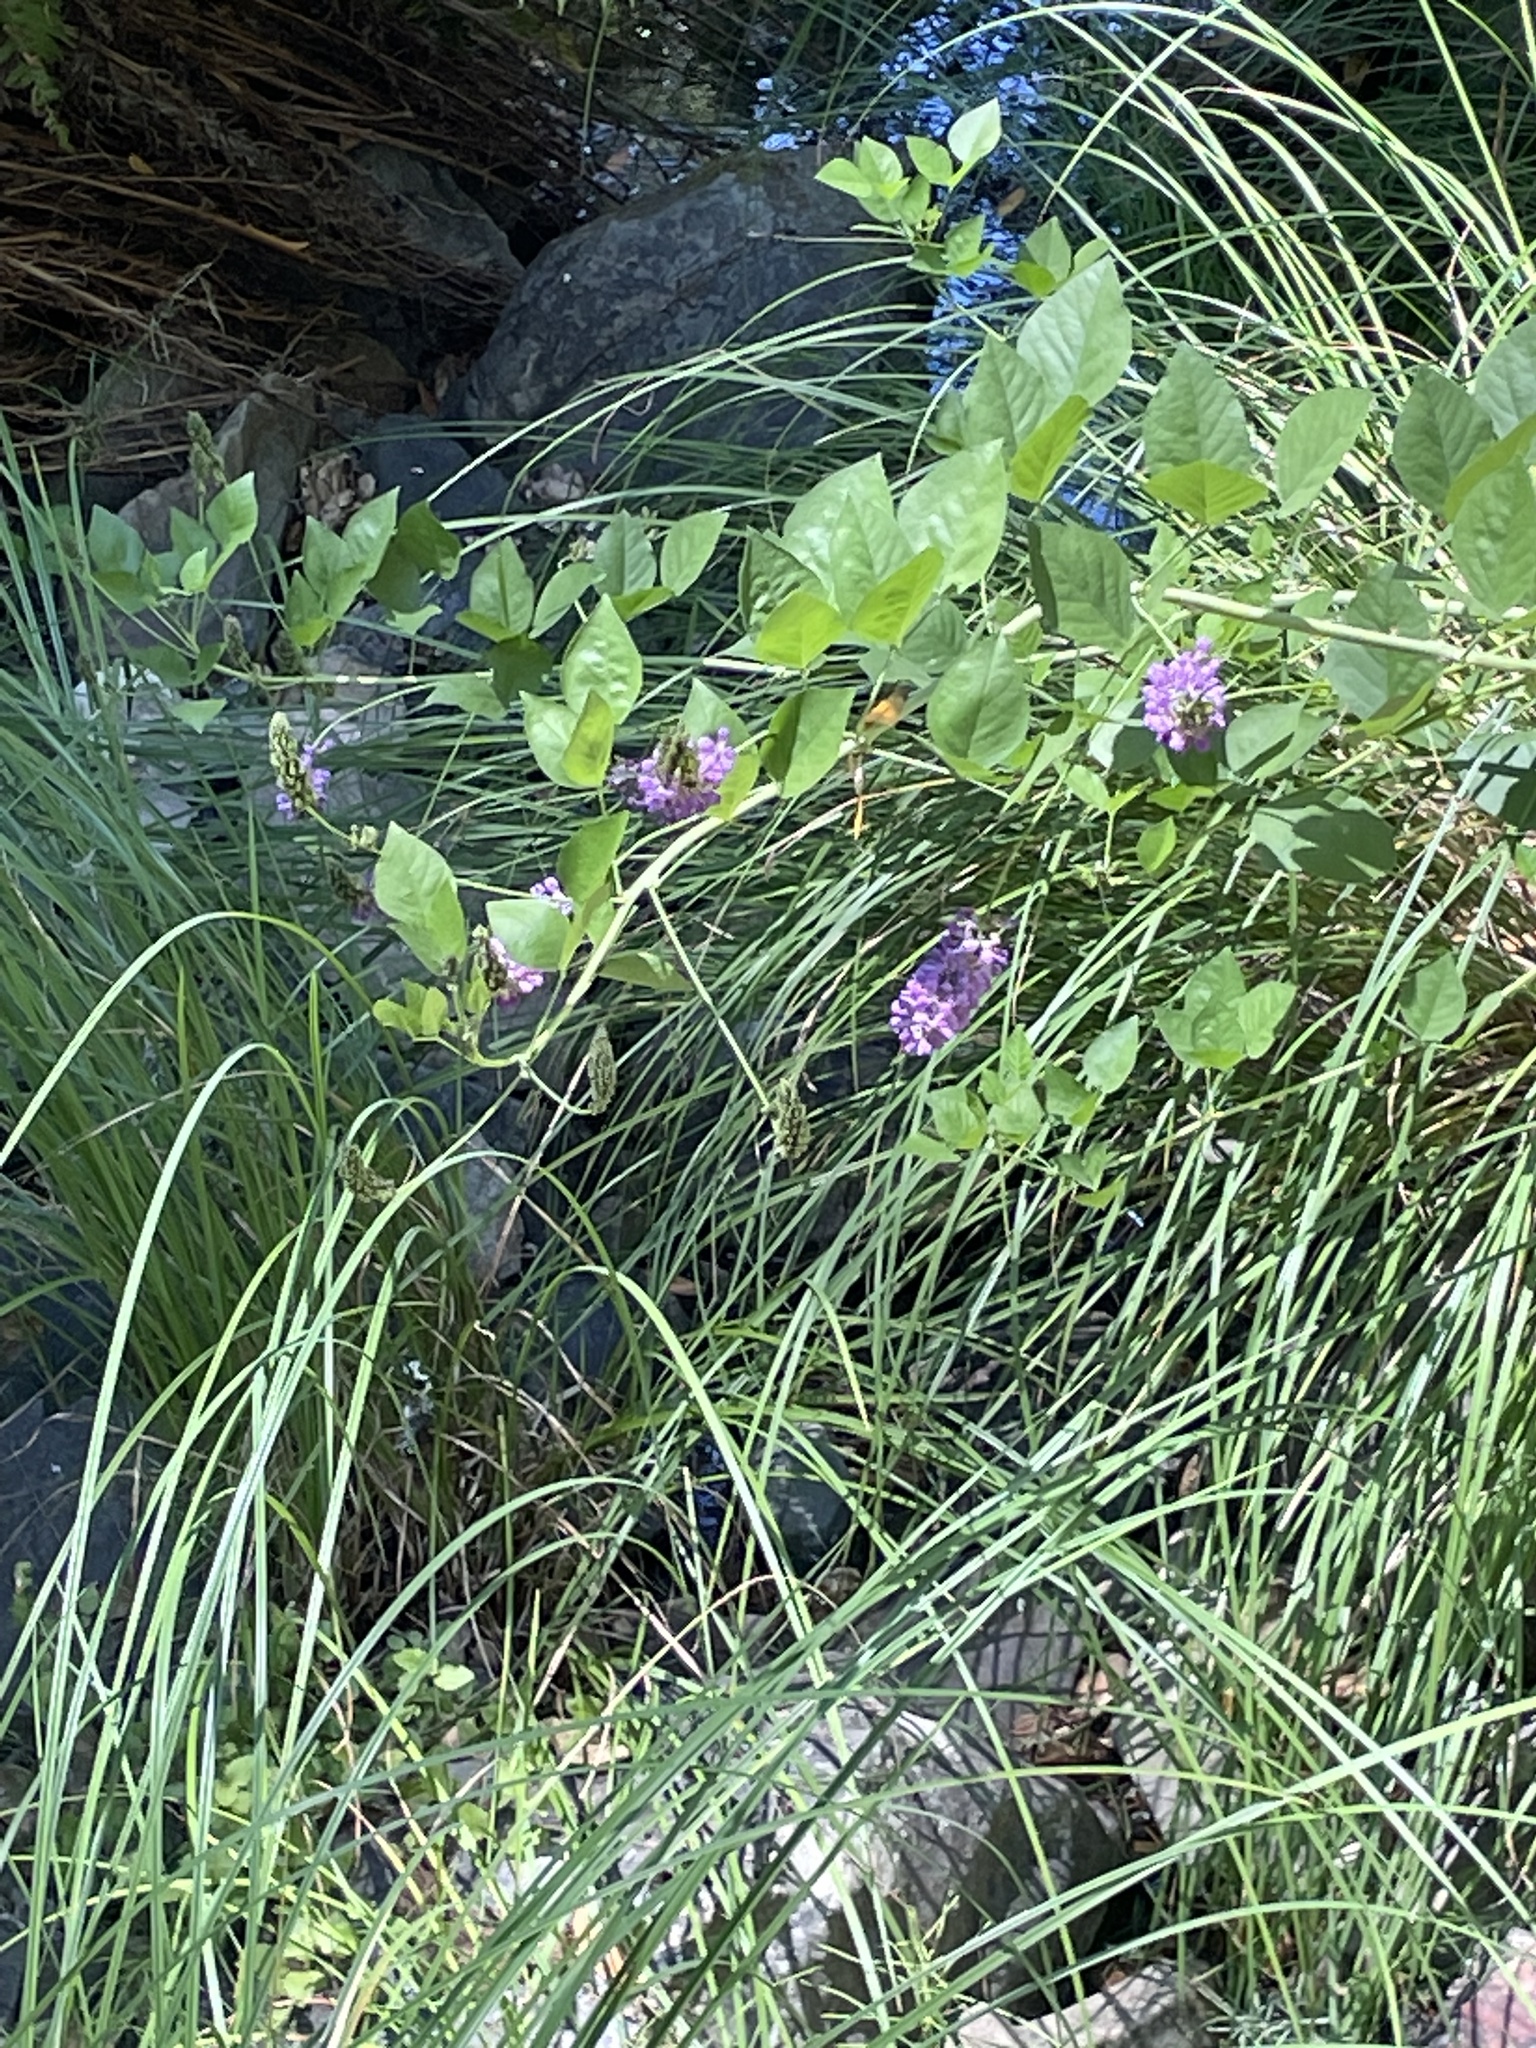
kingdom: Plantae
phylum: Tracheophyta
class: Magnoliopsida
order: Fabales
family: Fabaceae
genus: Hoita
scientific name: Hoita macrostachya
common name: Leatherroot
